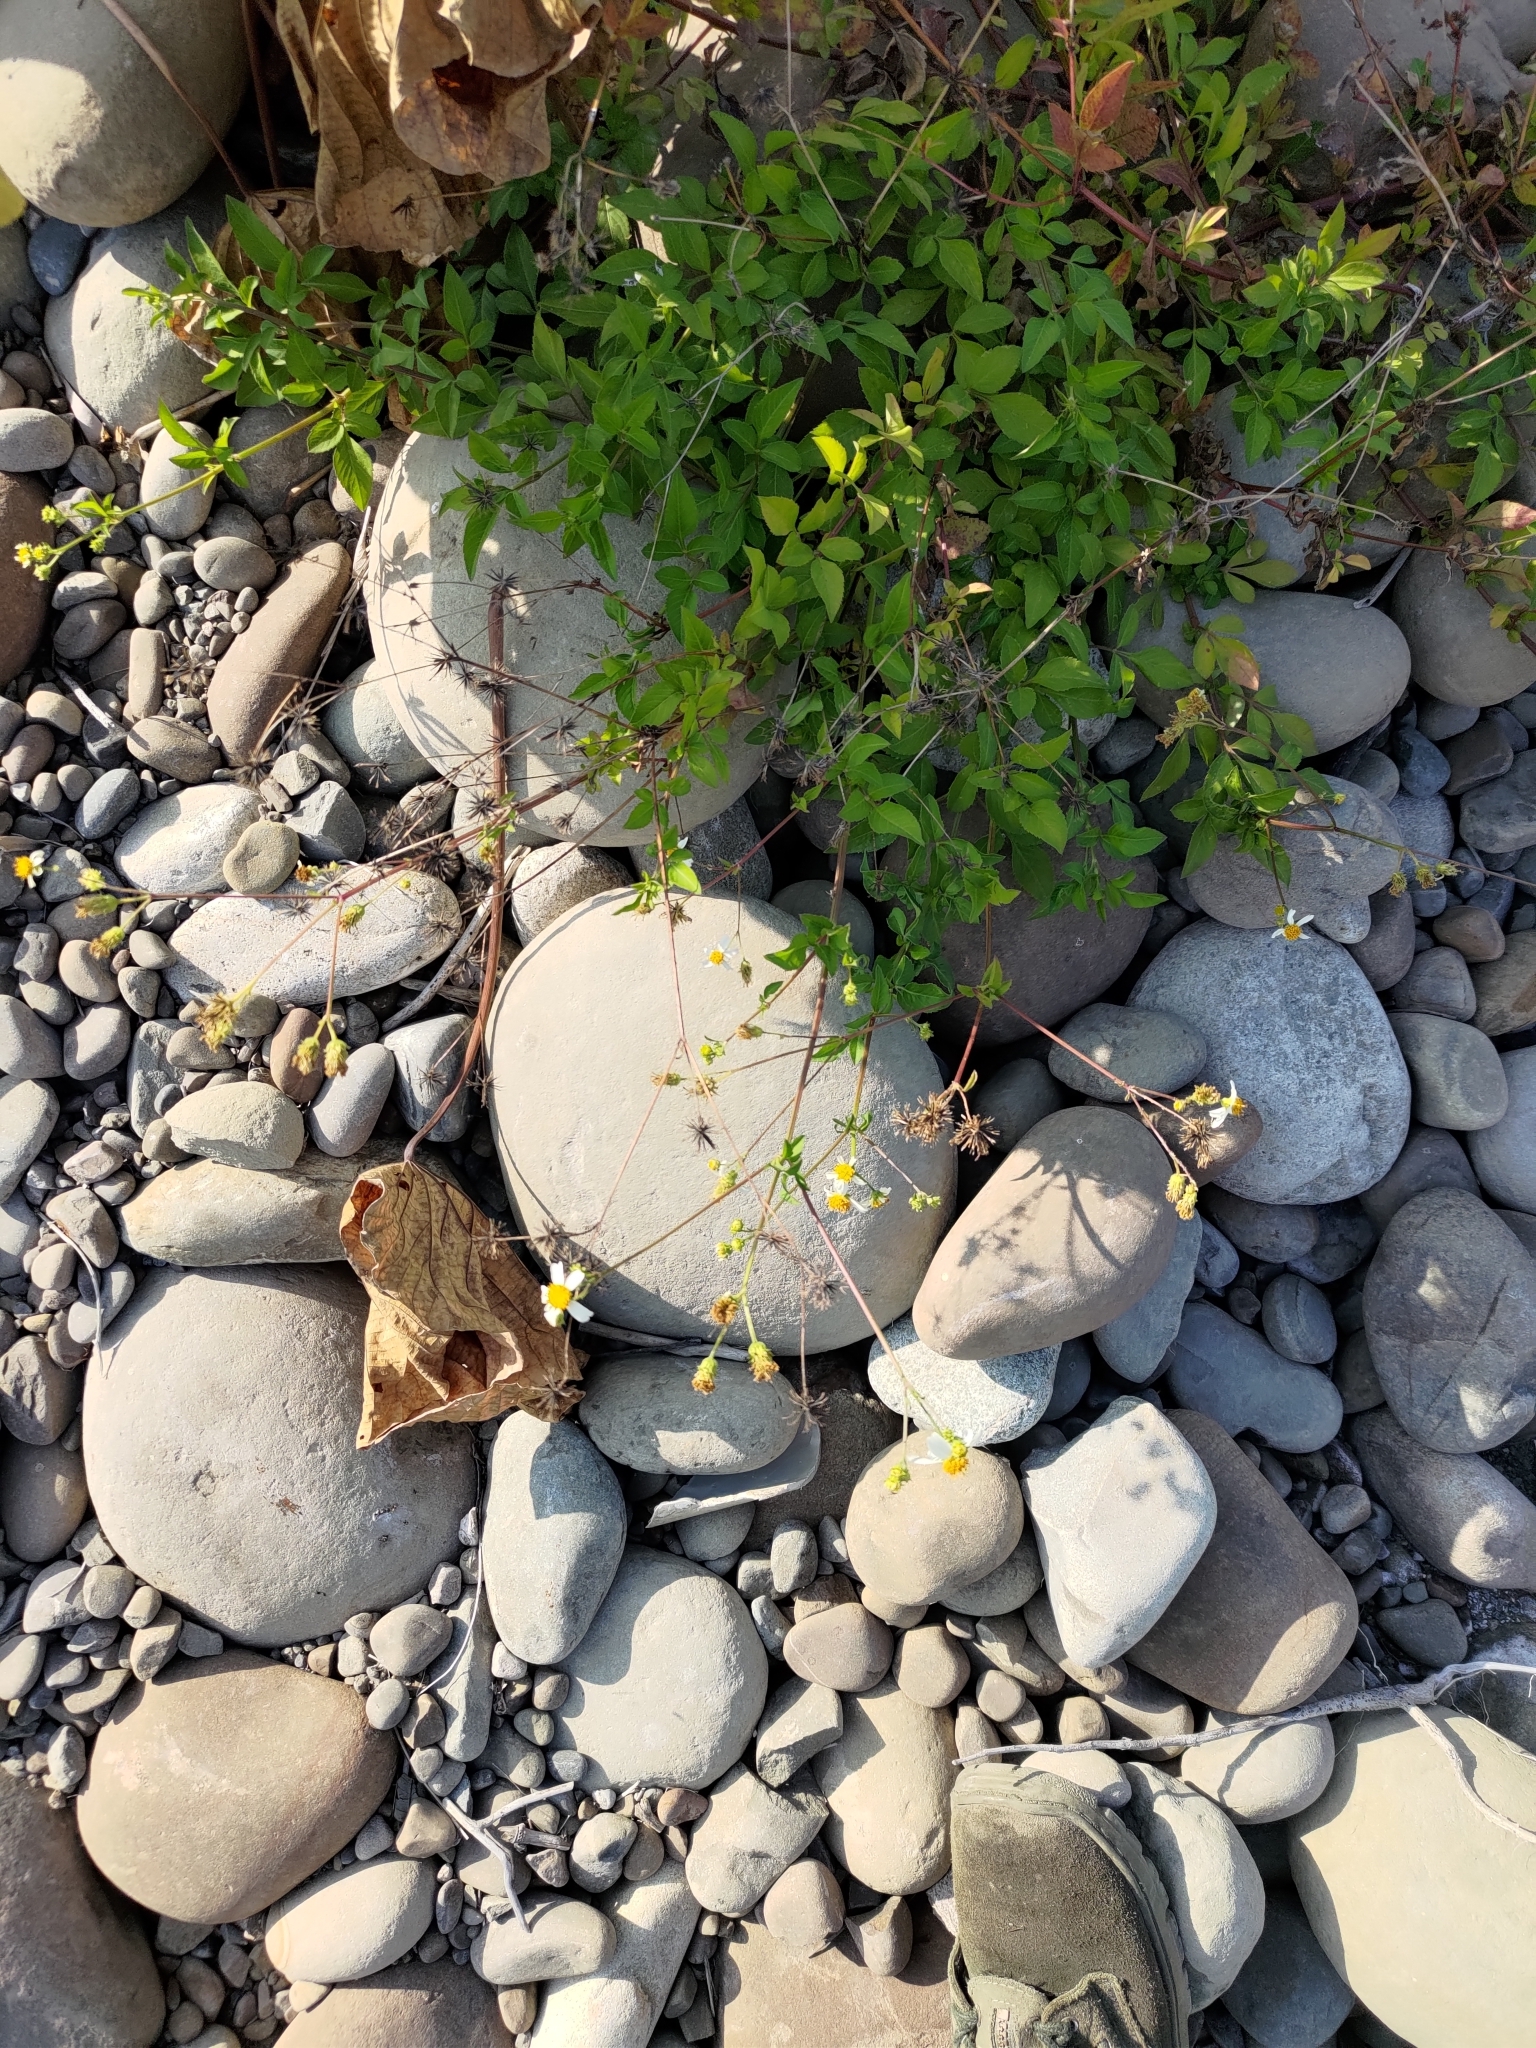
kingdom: Plantae
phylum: Tracheophyta
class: Magnoliopsida
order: Asterales
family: Asteraceae
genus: Bidens
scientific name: Bidens alba
